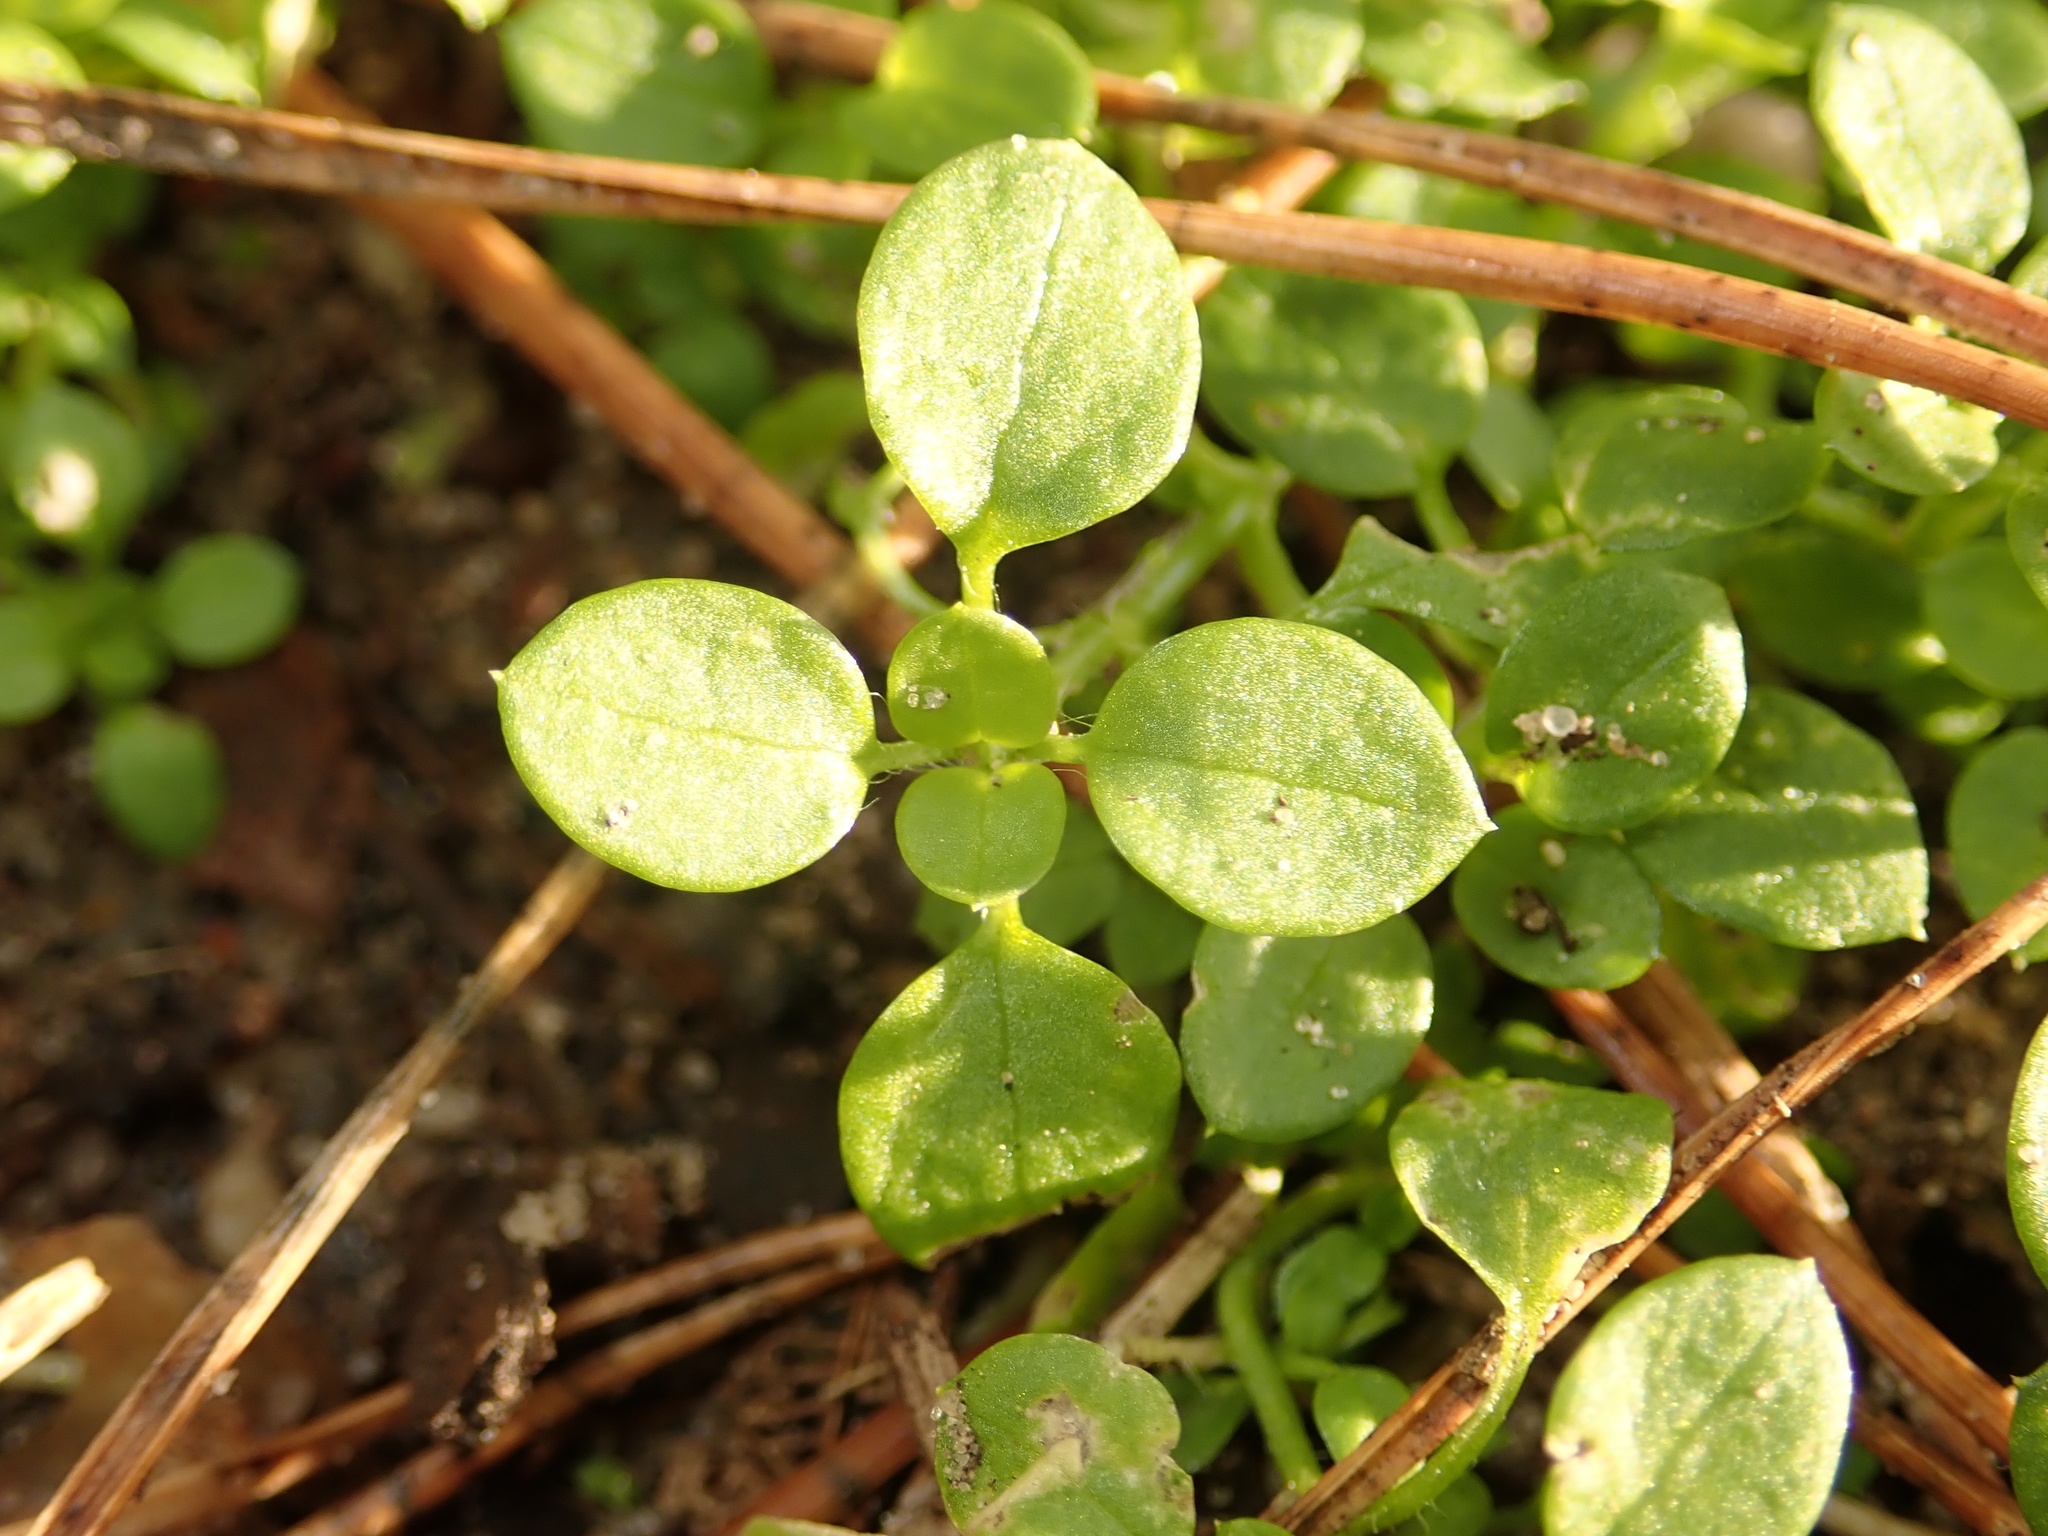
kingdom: Plantae
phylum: Tracheophyta
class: Magnoliopsida
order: Caryophyllales
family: Caryophyllaceae
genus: Stellaria
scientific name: Stellaria media
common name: Common chickweed
